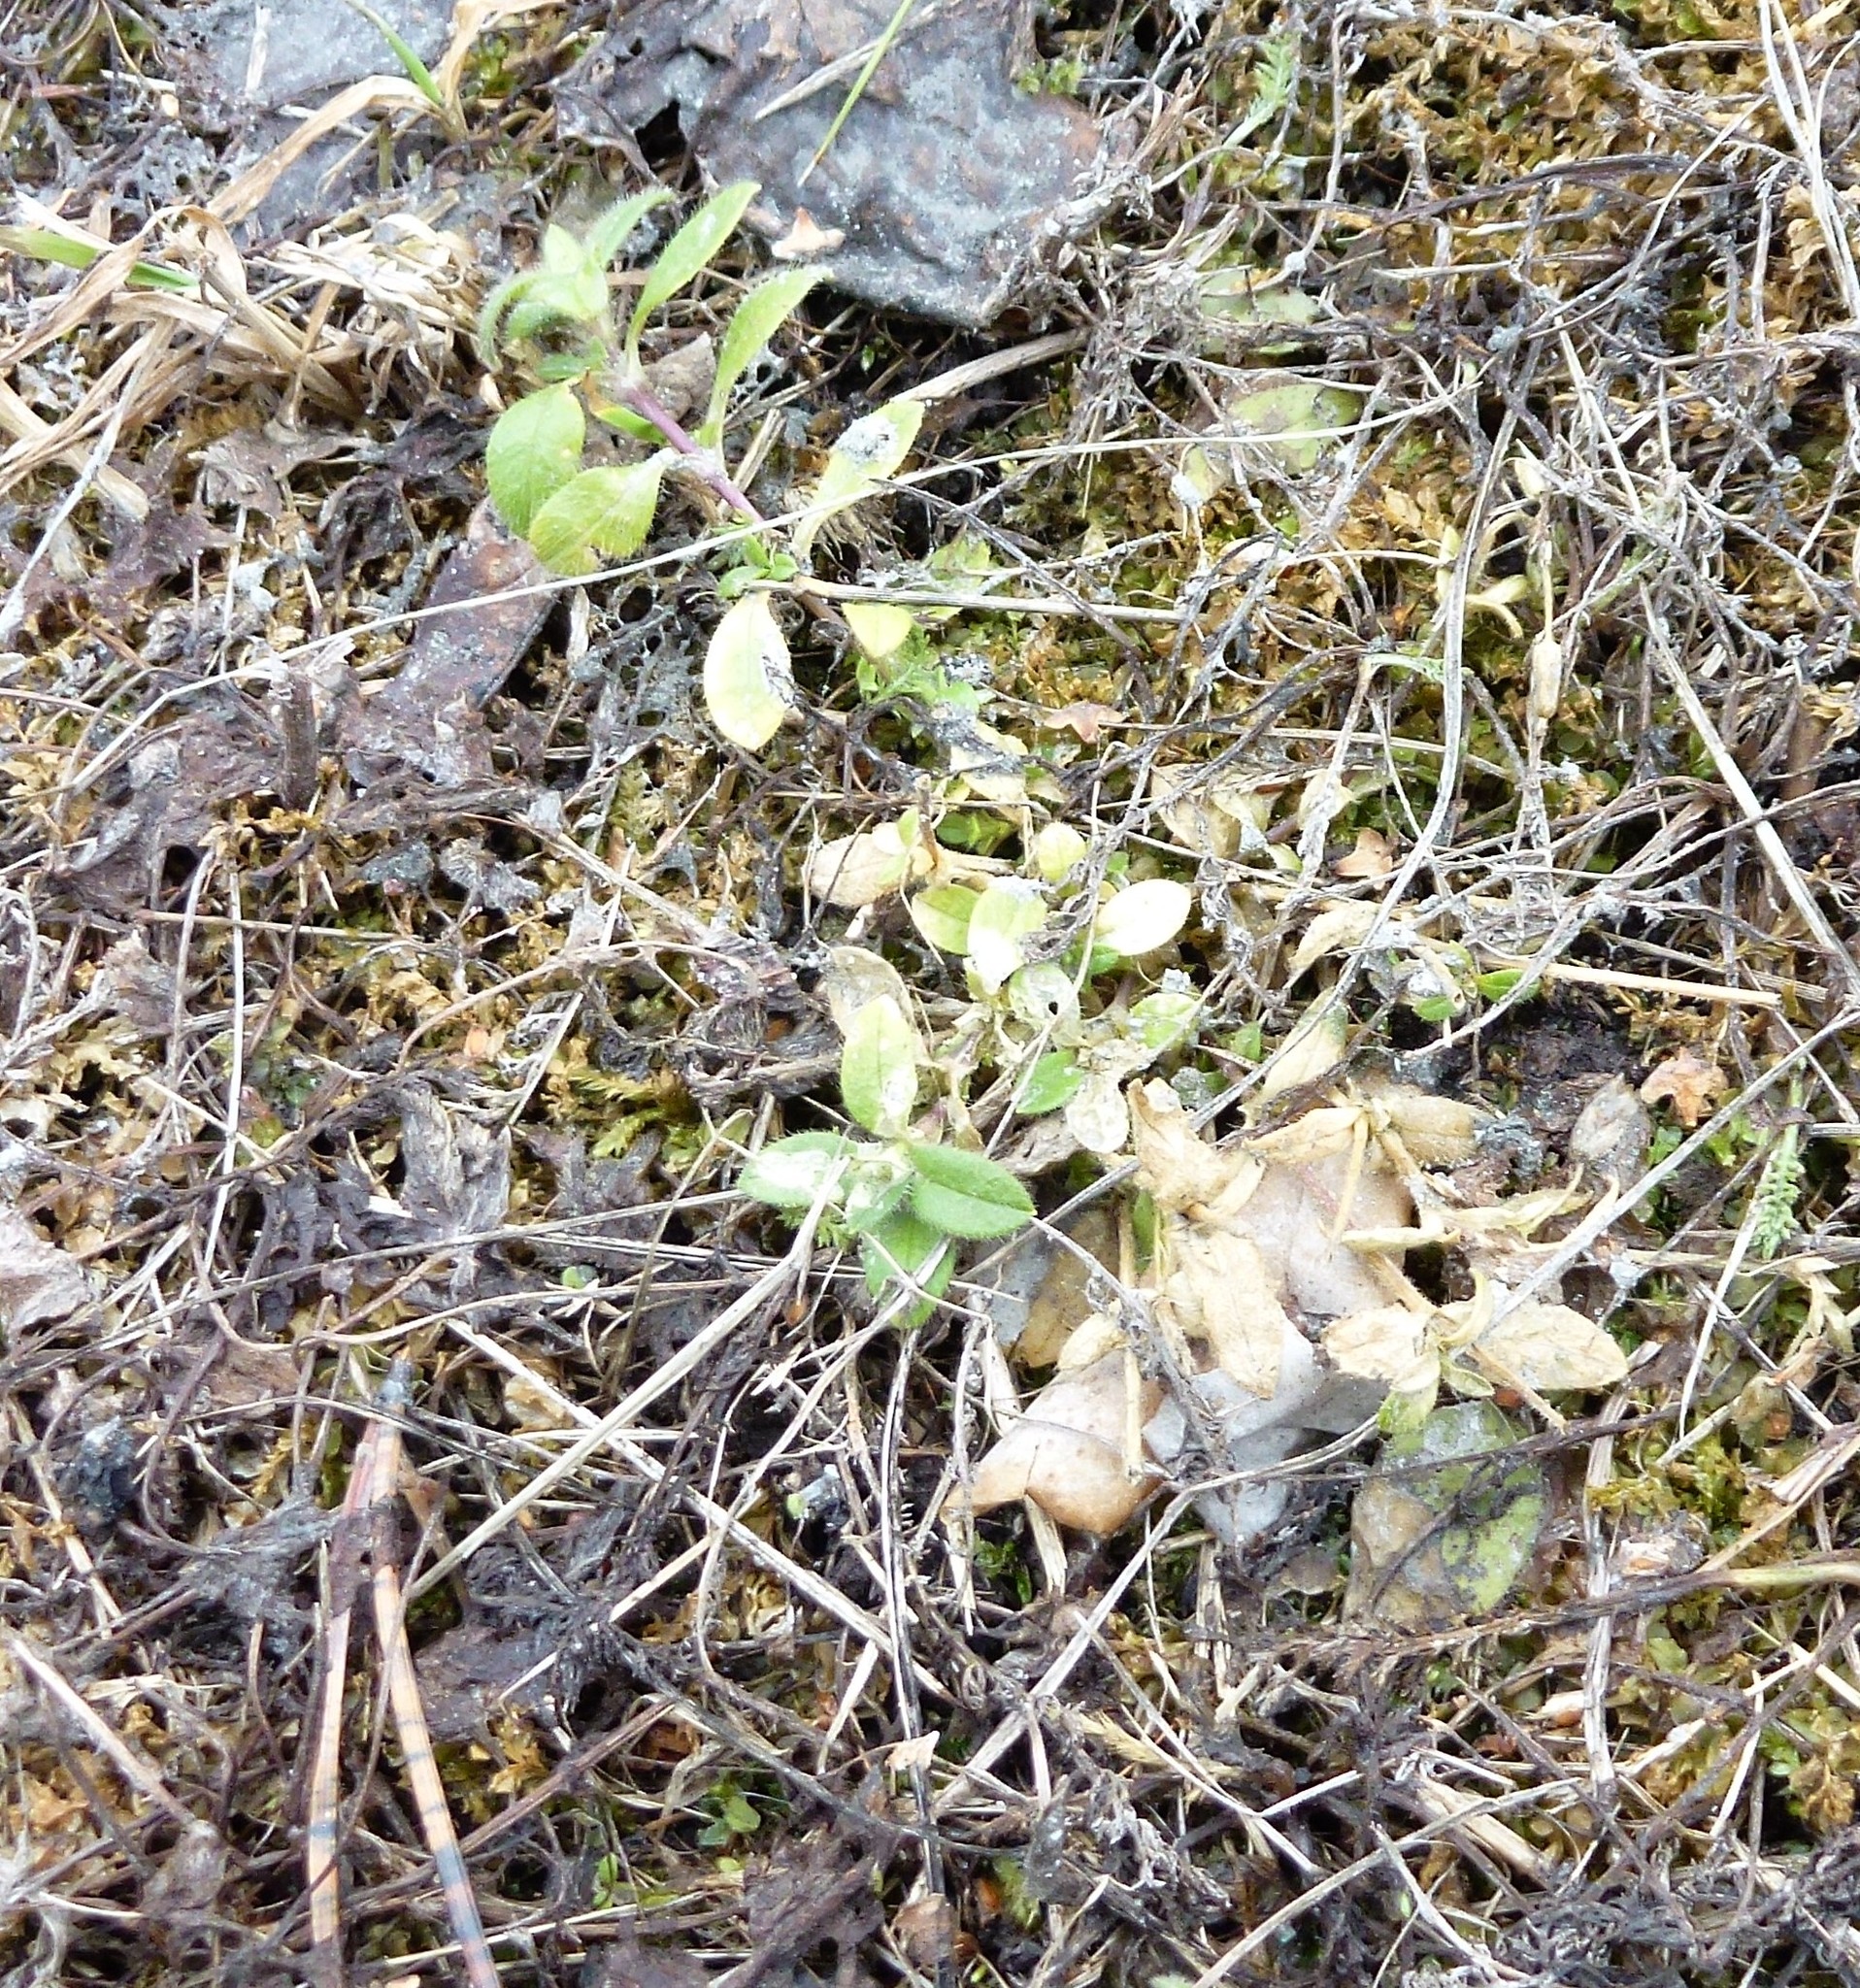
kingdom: Plantae
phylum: Tracheophyta
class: Magnoliopsida
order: Caryophyllales
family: Caryophyllaceae
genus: Cerastium
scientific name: Cerastium holosteoides
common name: Big chickweed
